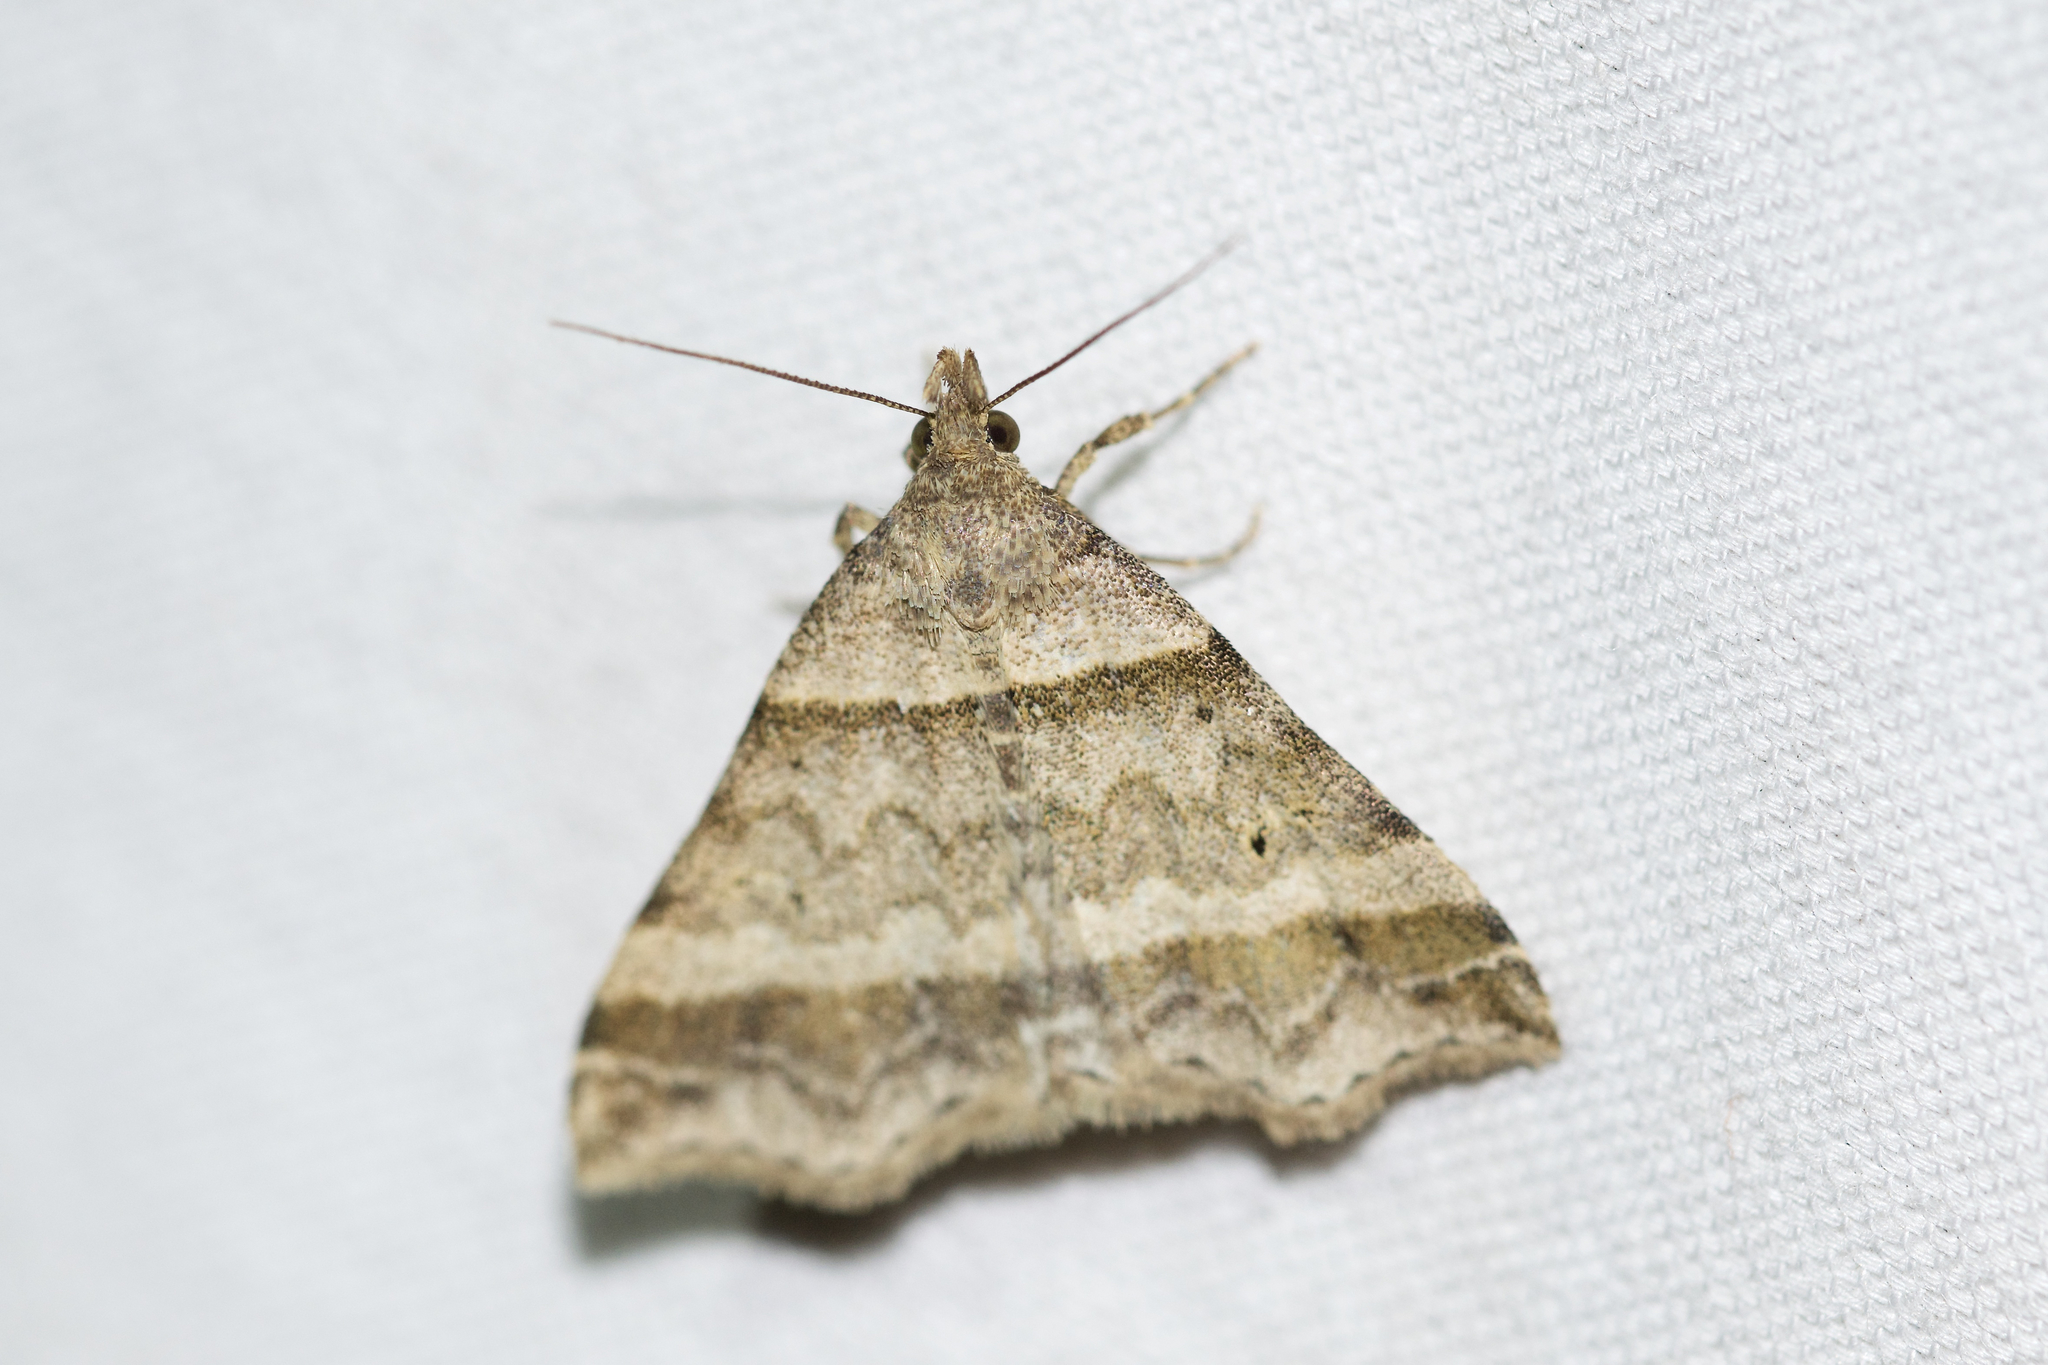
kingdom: Animalia
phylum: Arthropoda
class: Insecta
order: Lepidoptera
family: Erebidae
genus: Phaeolita
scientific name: Phaeolita pyramusalis
